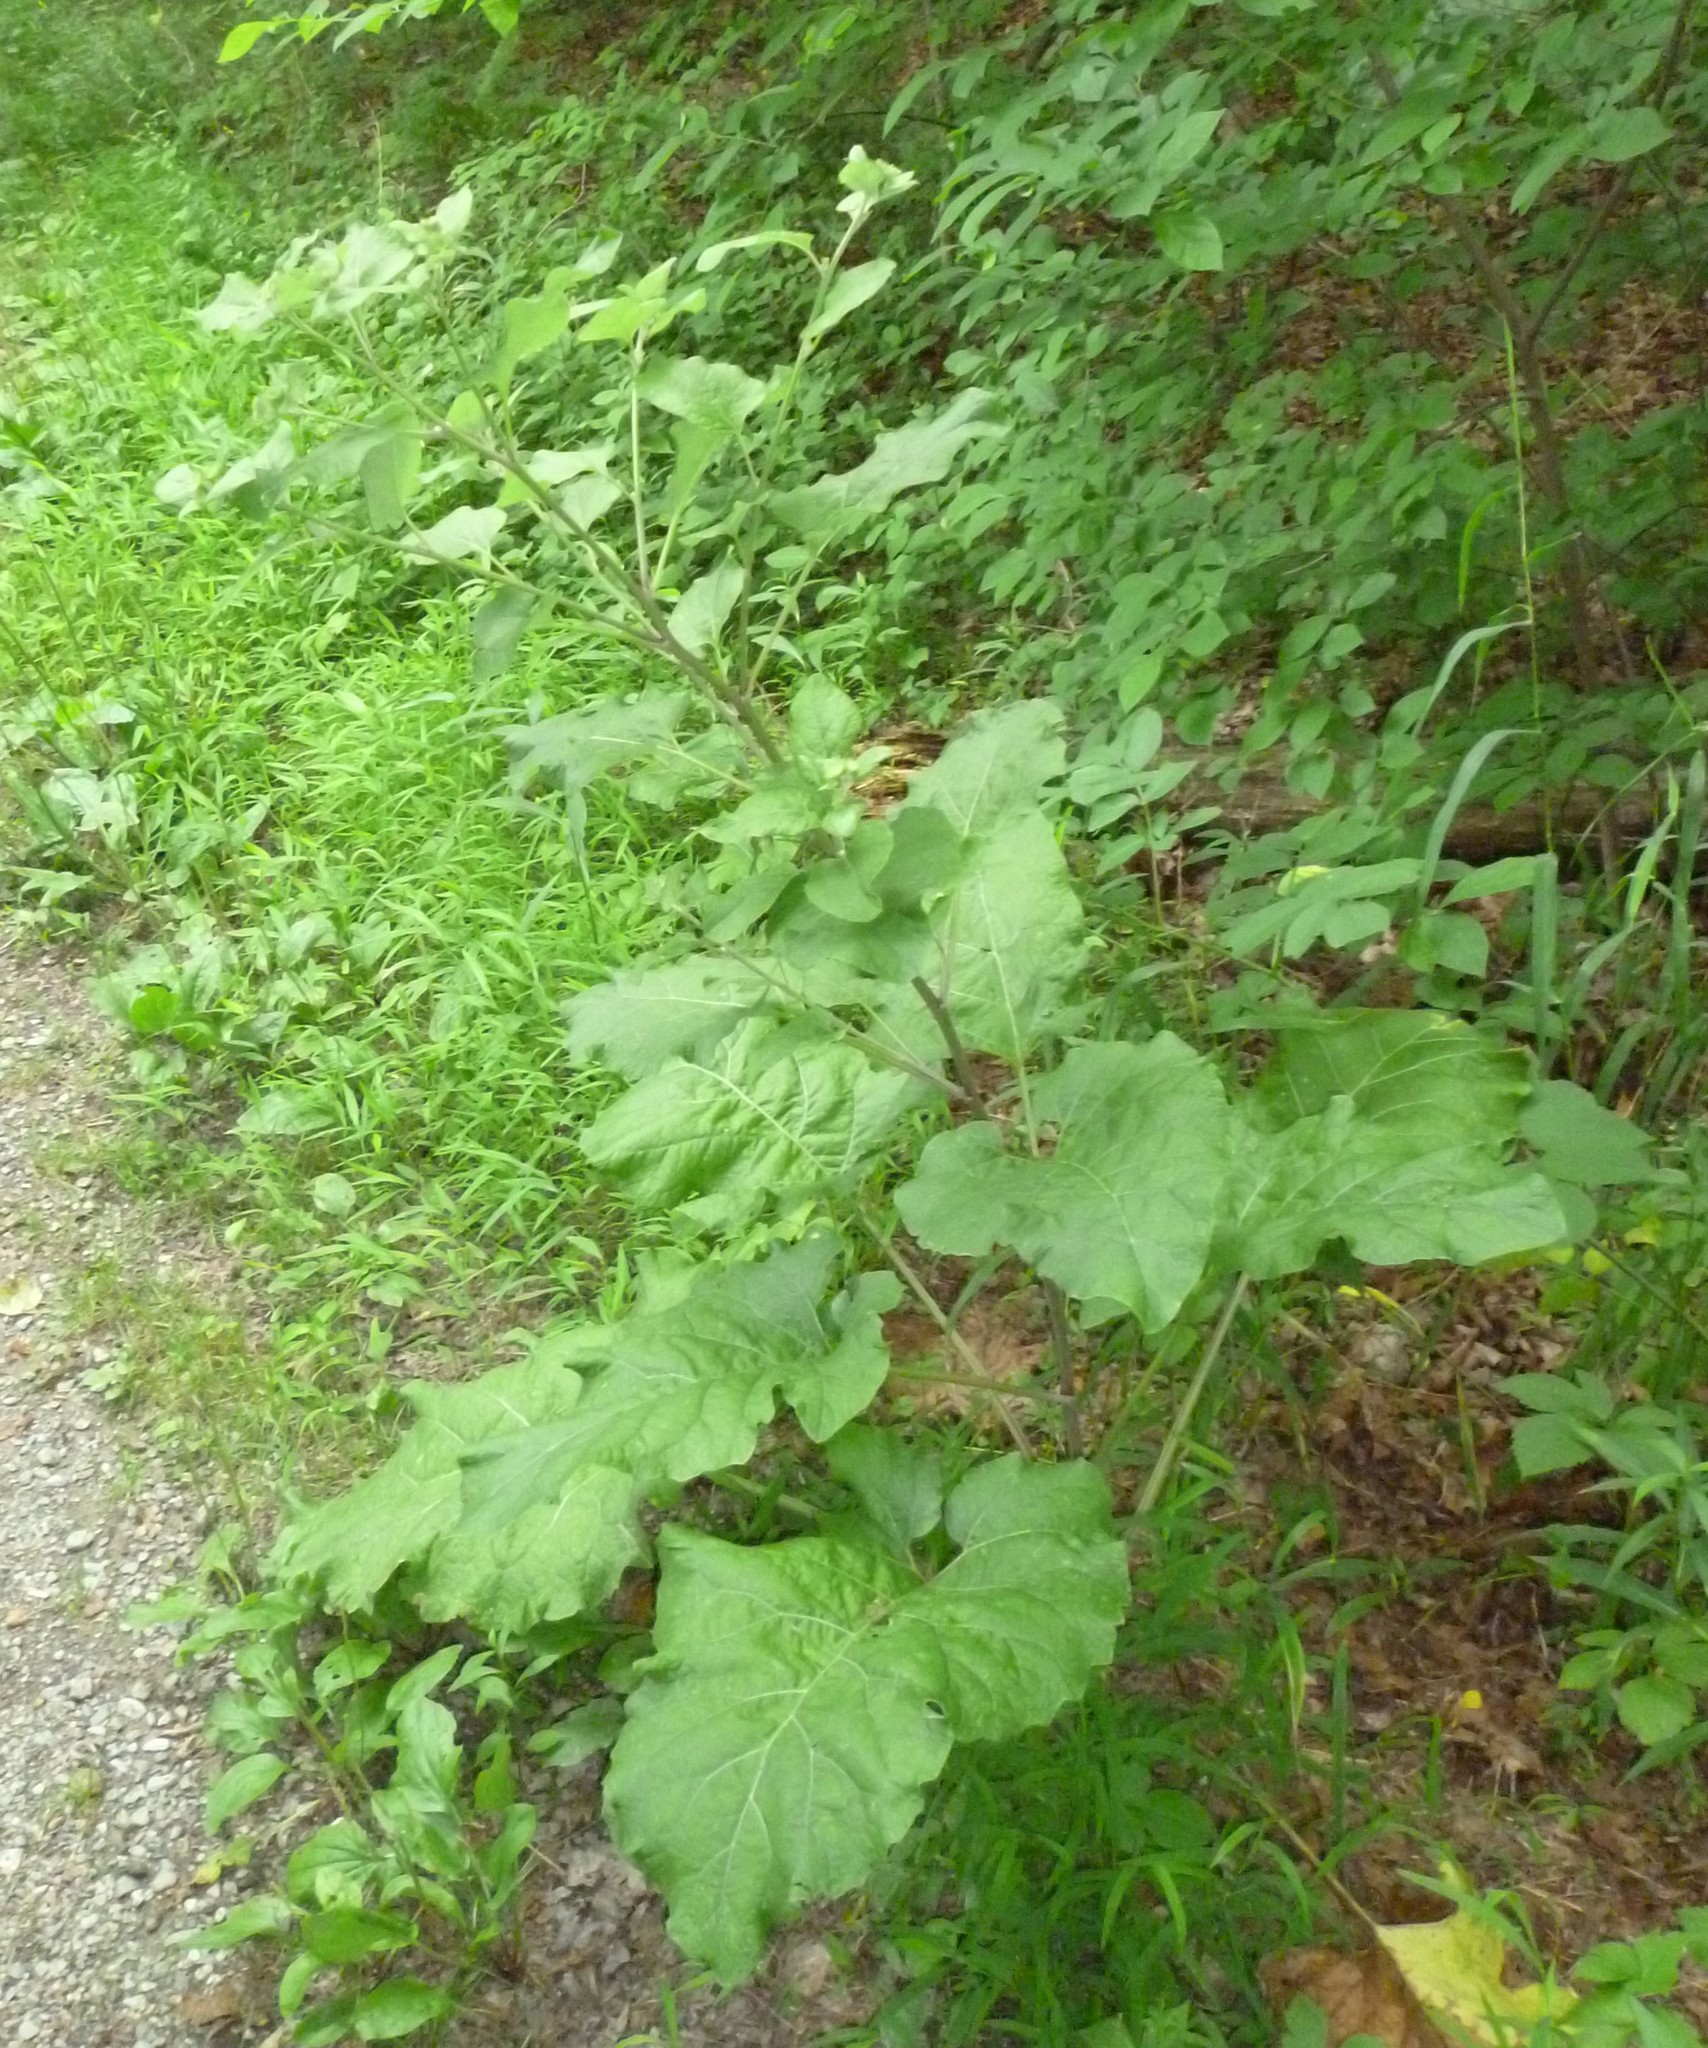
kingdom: Plantae
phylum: Tracheophyta
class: Magnoliopsida
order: Asterales
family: Asteraceae
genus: Arctium
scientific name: Arctium
